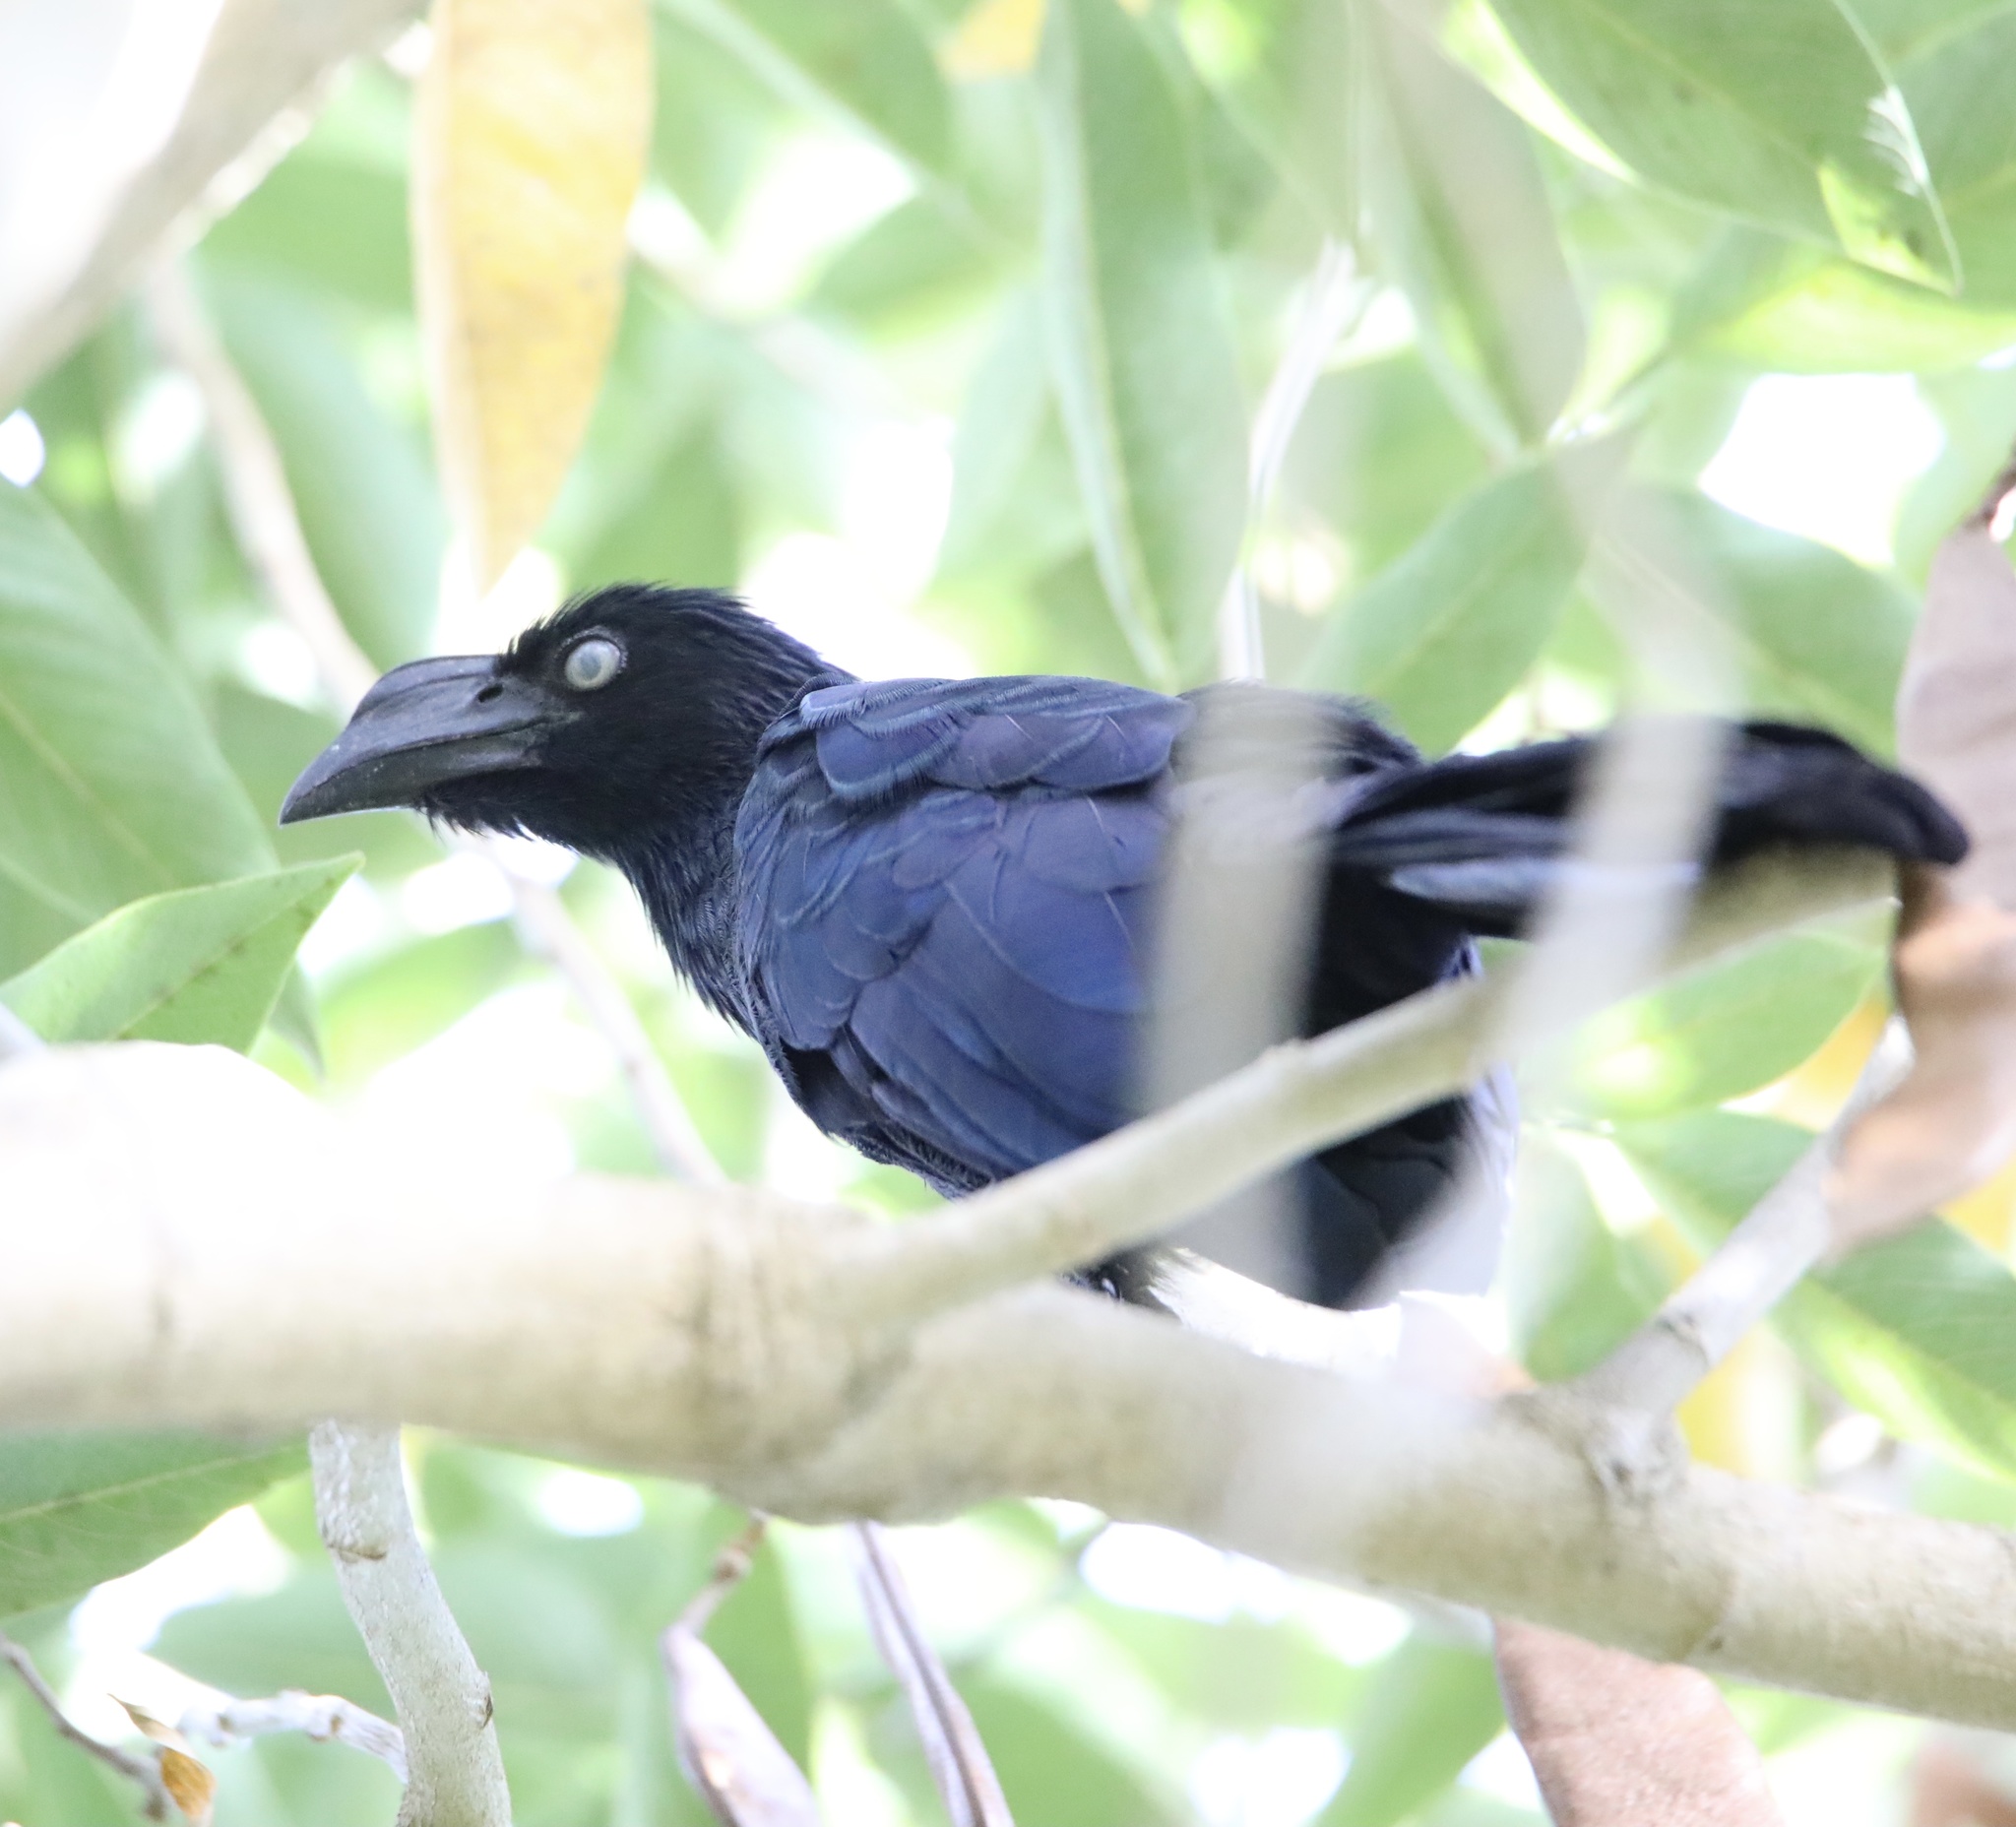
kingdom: Animalia
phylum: Chordata
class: Aves
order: Cuculiformes
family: Cuculidae
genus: Crotophaga
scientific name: Crotophaga major
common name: Greater ani
